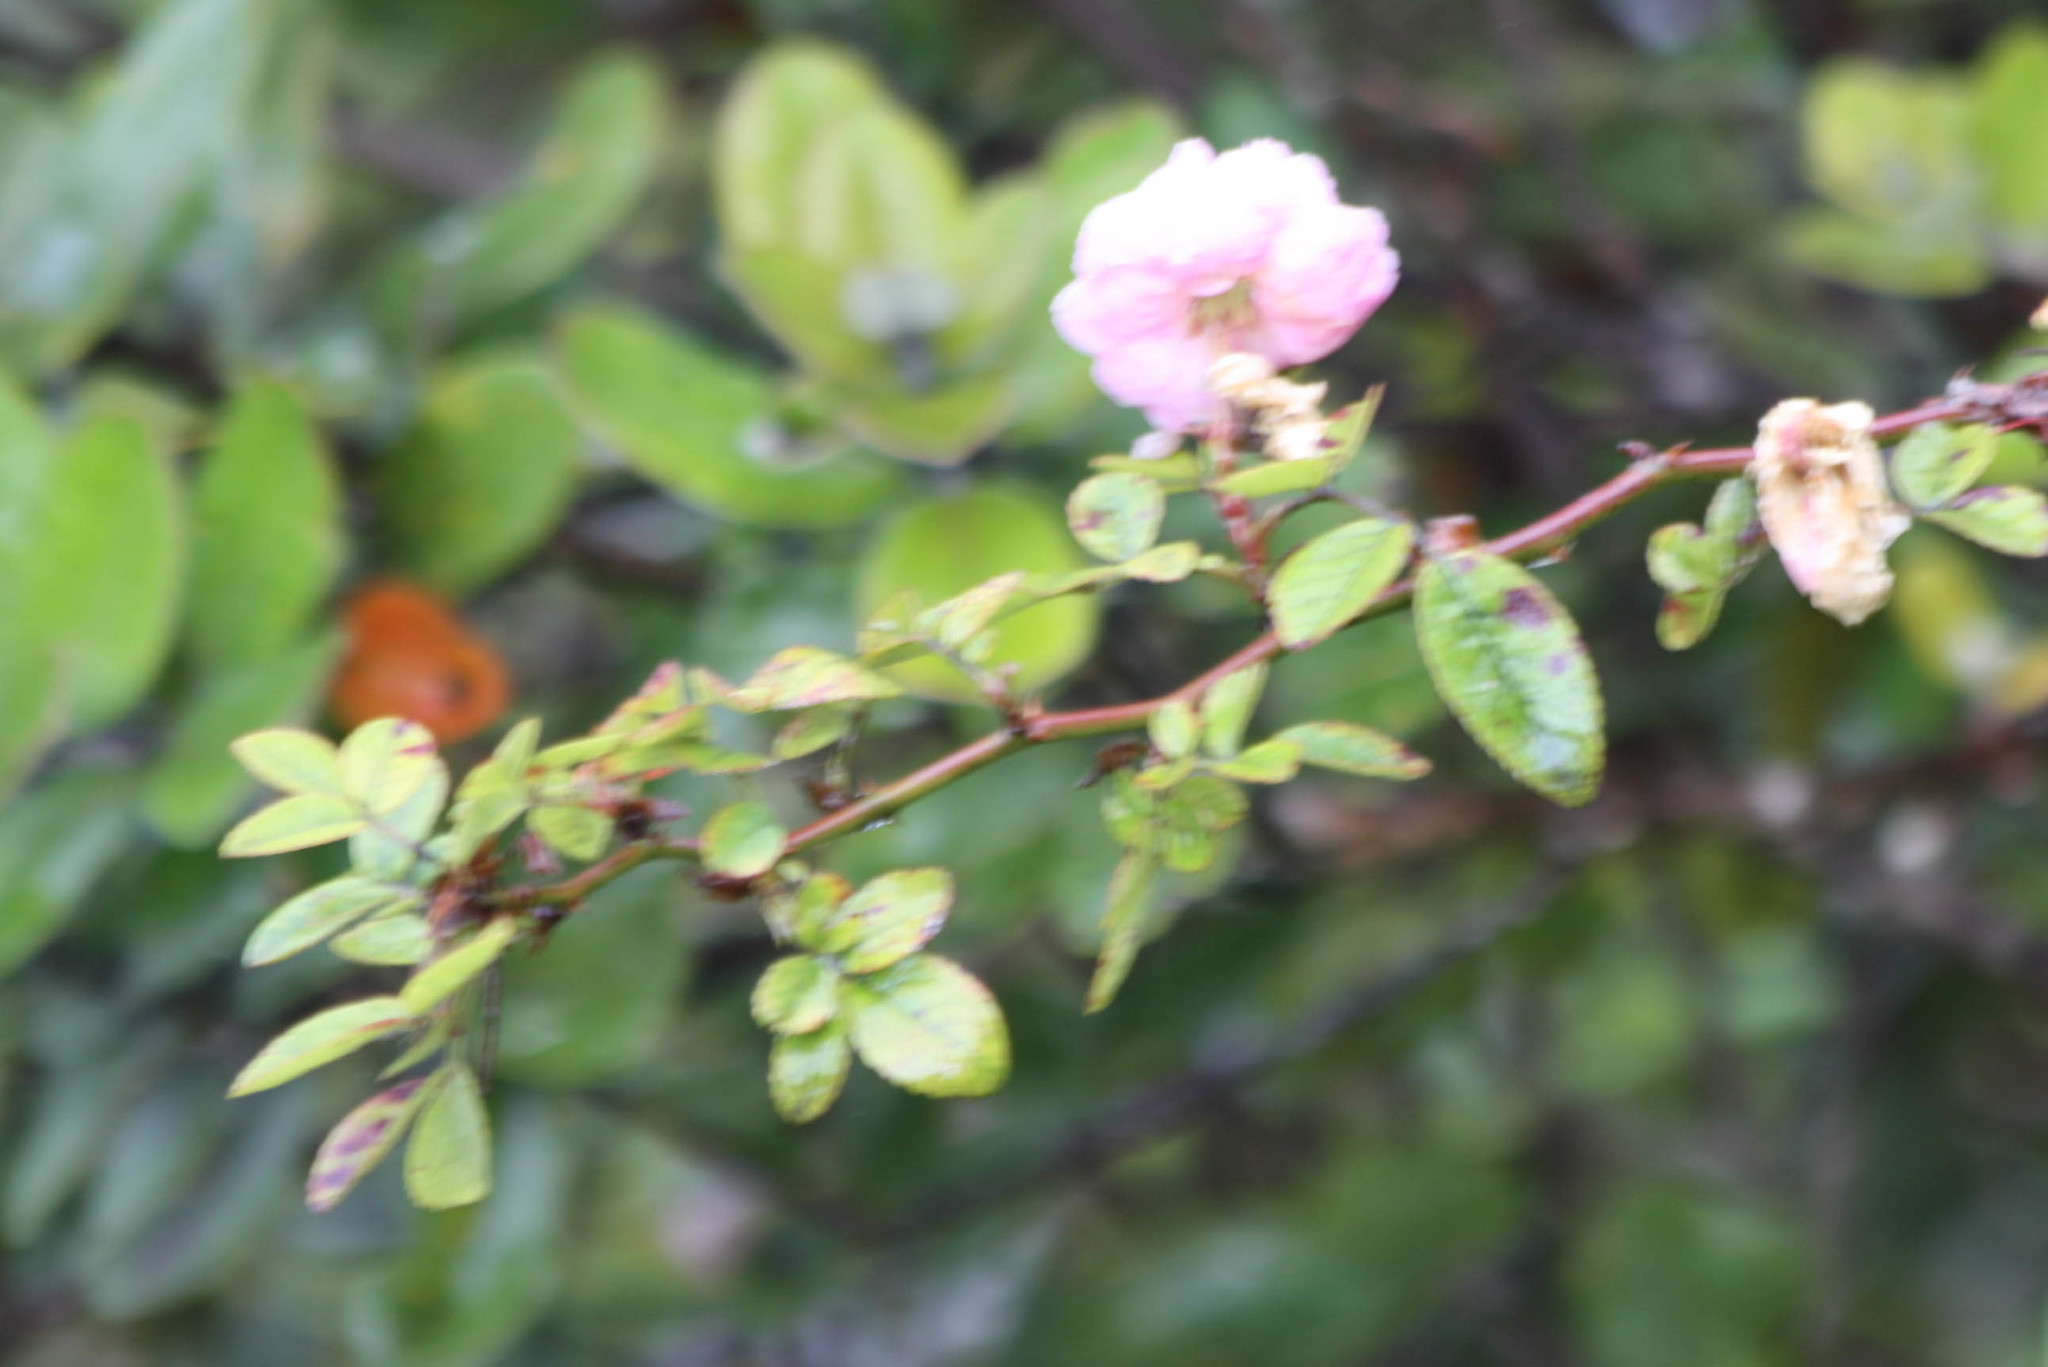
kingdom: Plantae
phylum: Tracheophyta
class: Magnoliopsida
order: Rosales
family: Rosaceae
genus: Rosa
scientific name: Rosa damascena
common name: Damask rose
